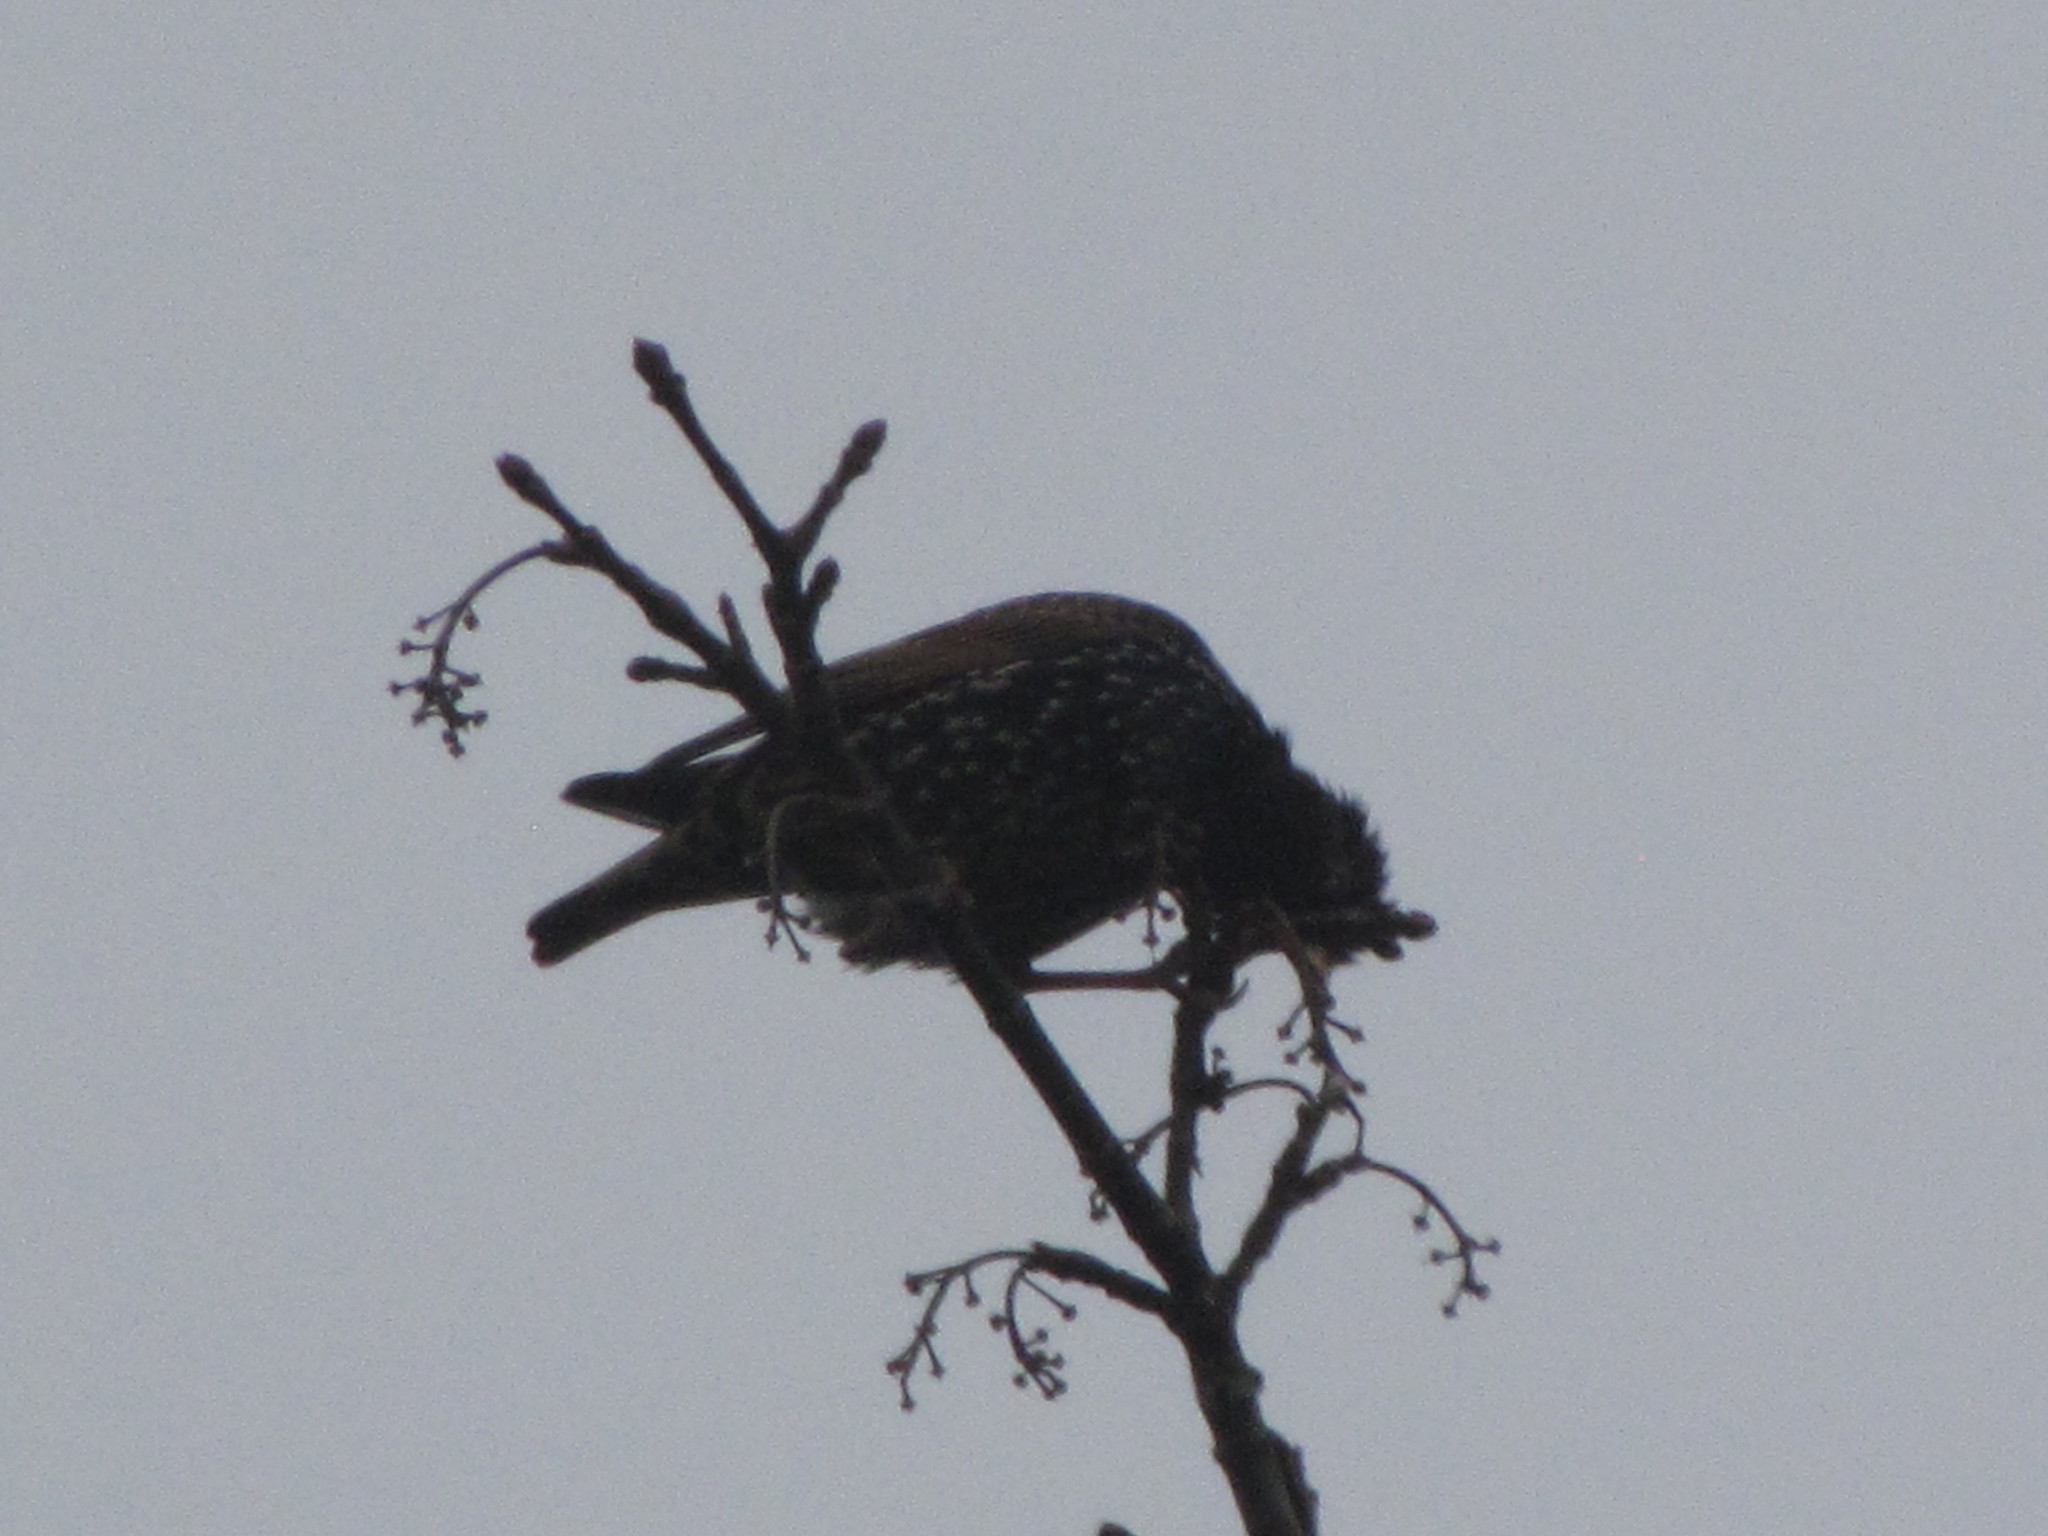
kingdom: Animalia
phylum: Chordata
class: Aves
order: Passeriformes
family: Sturnidae
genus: Sturnus
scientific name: Sturnus vulgaris
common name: Common starling
